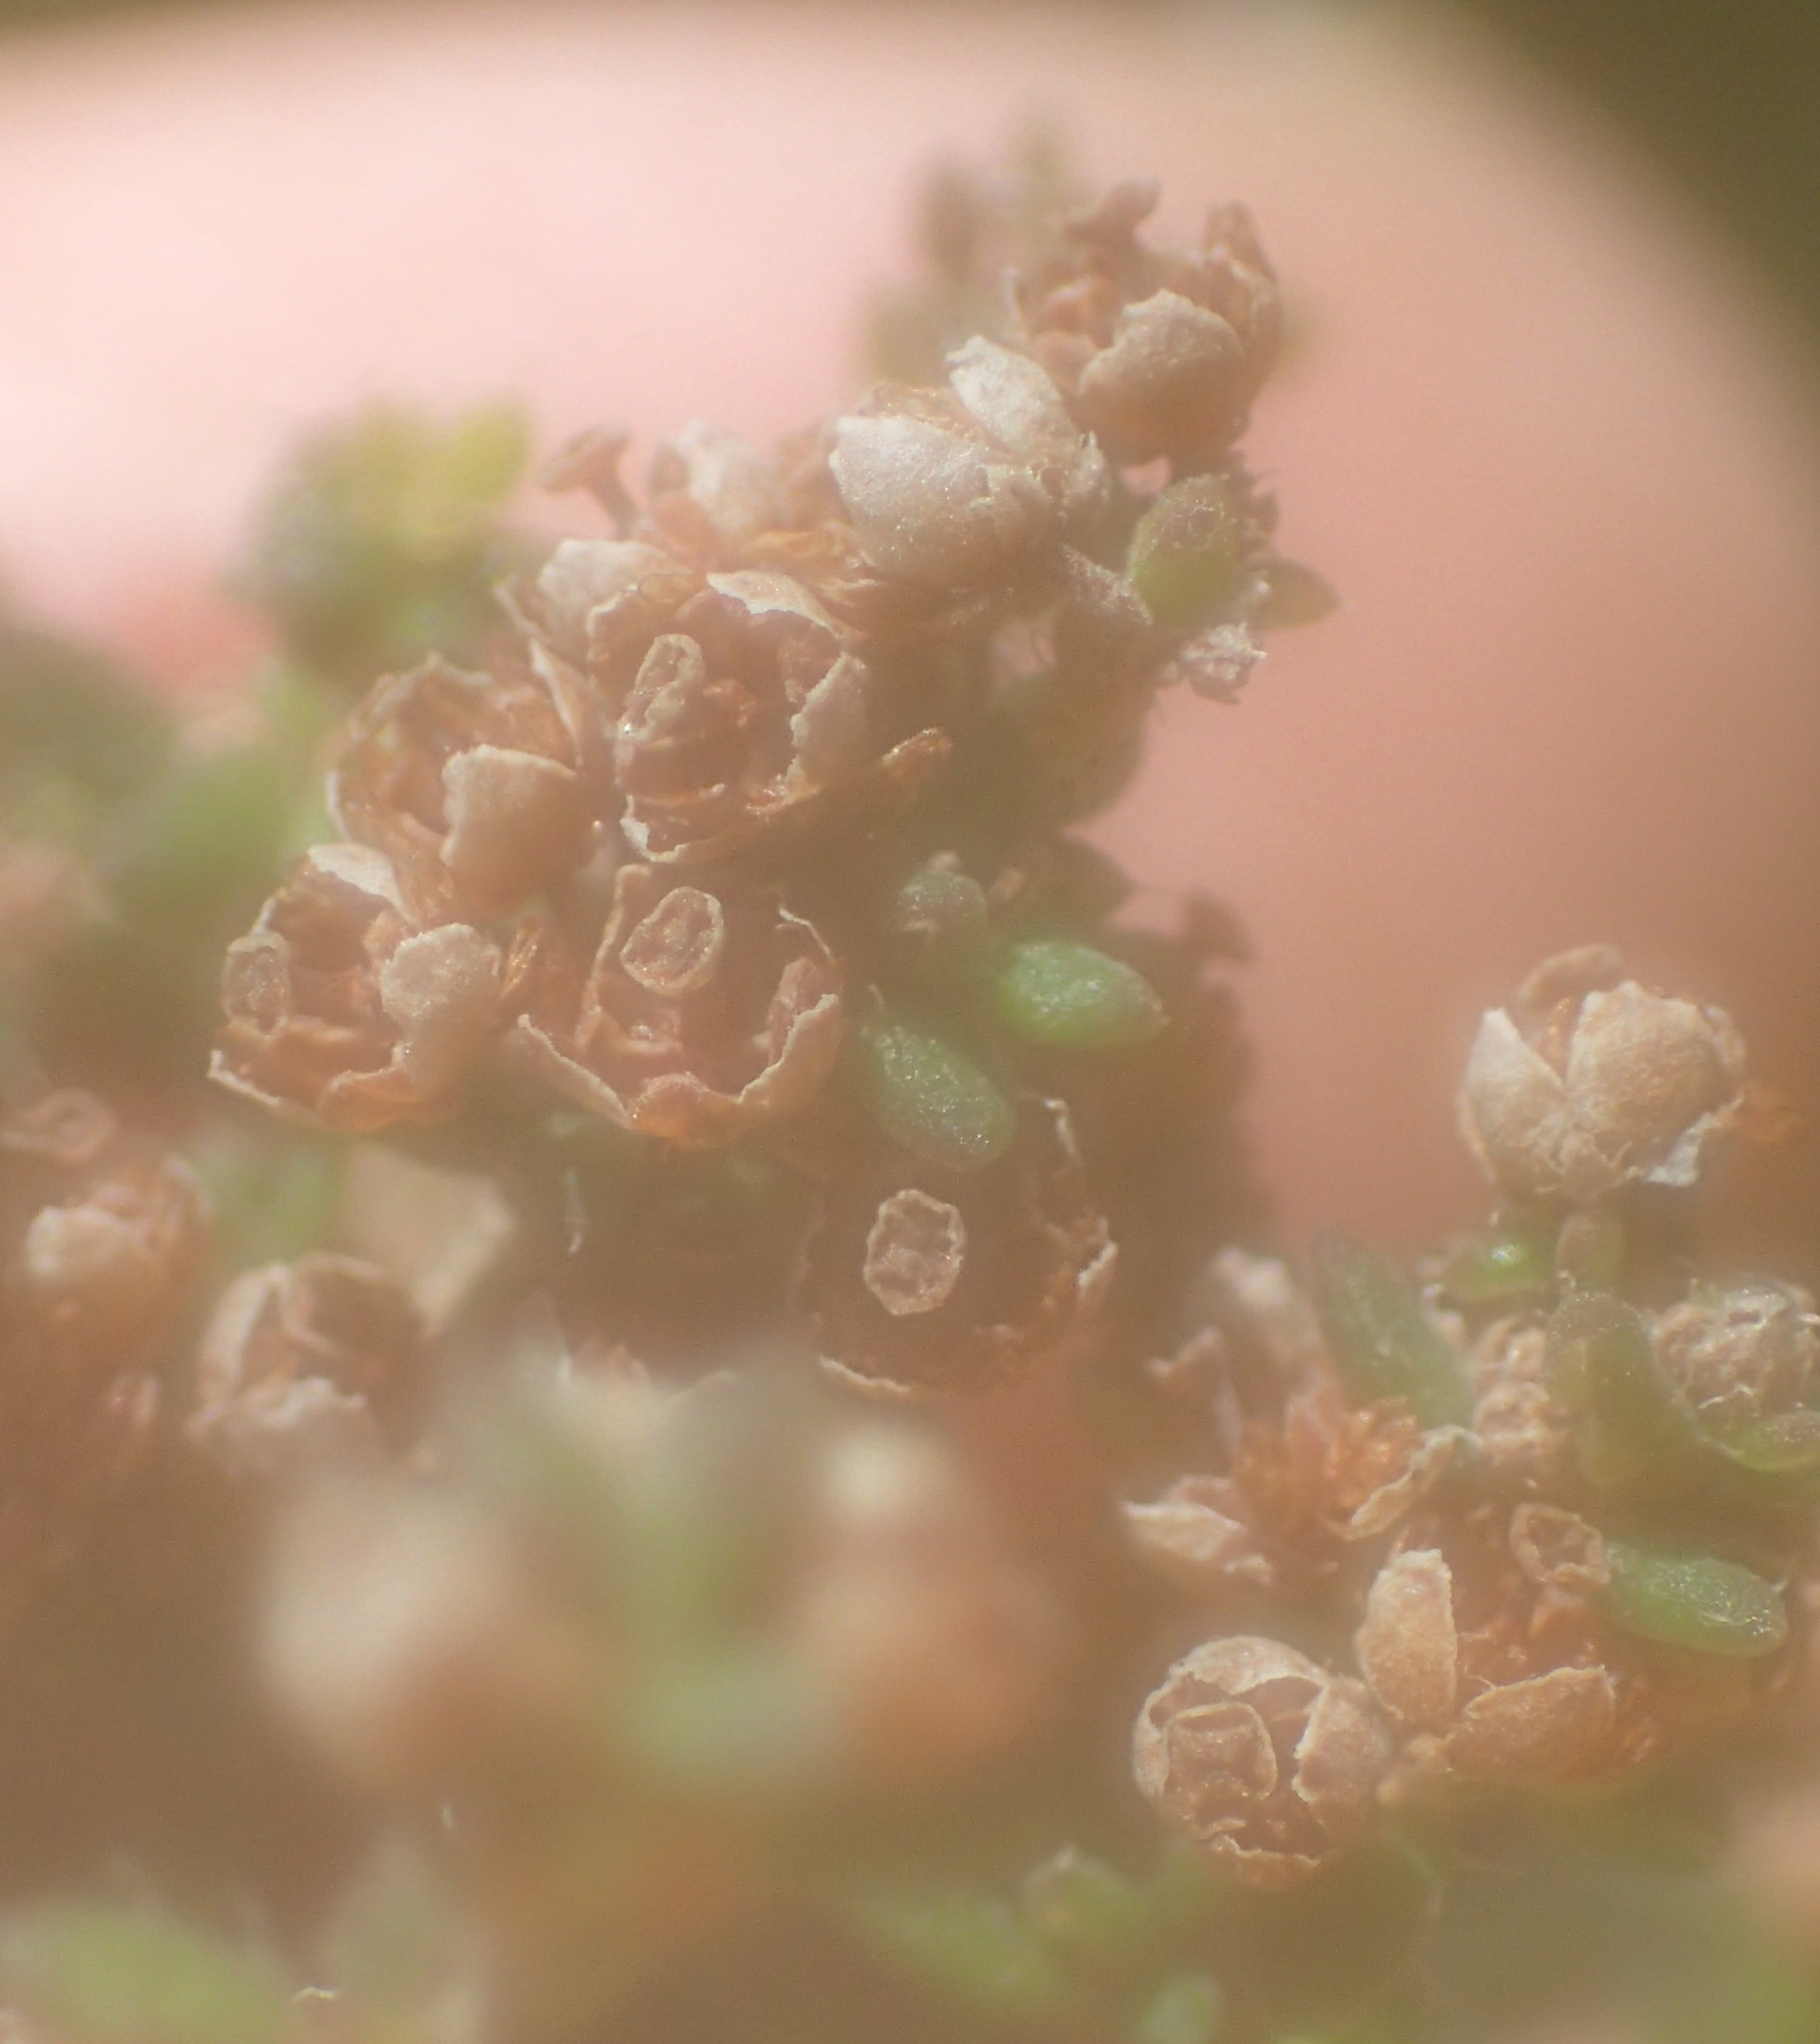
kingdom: Plantae
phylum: Tracheophyta
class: Magnoliopsida
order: Ericales
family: Ericaceae
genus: Erica
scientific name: Erica leucopelta
